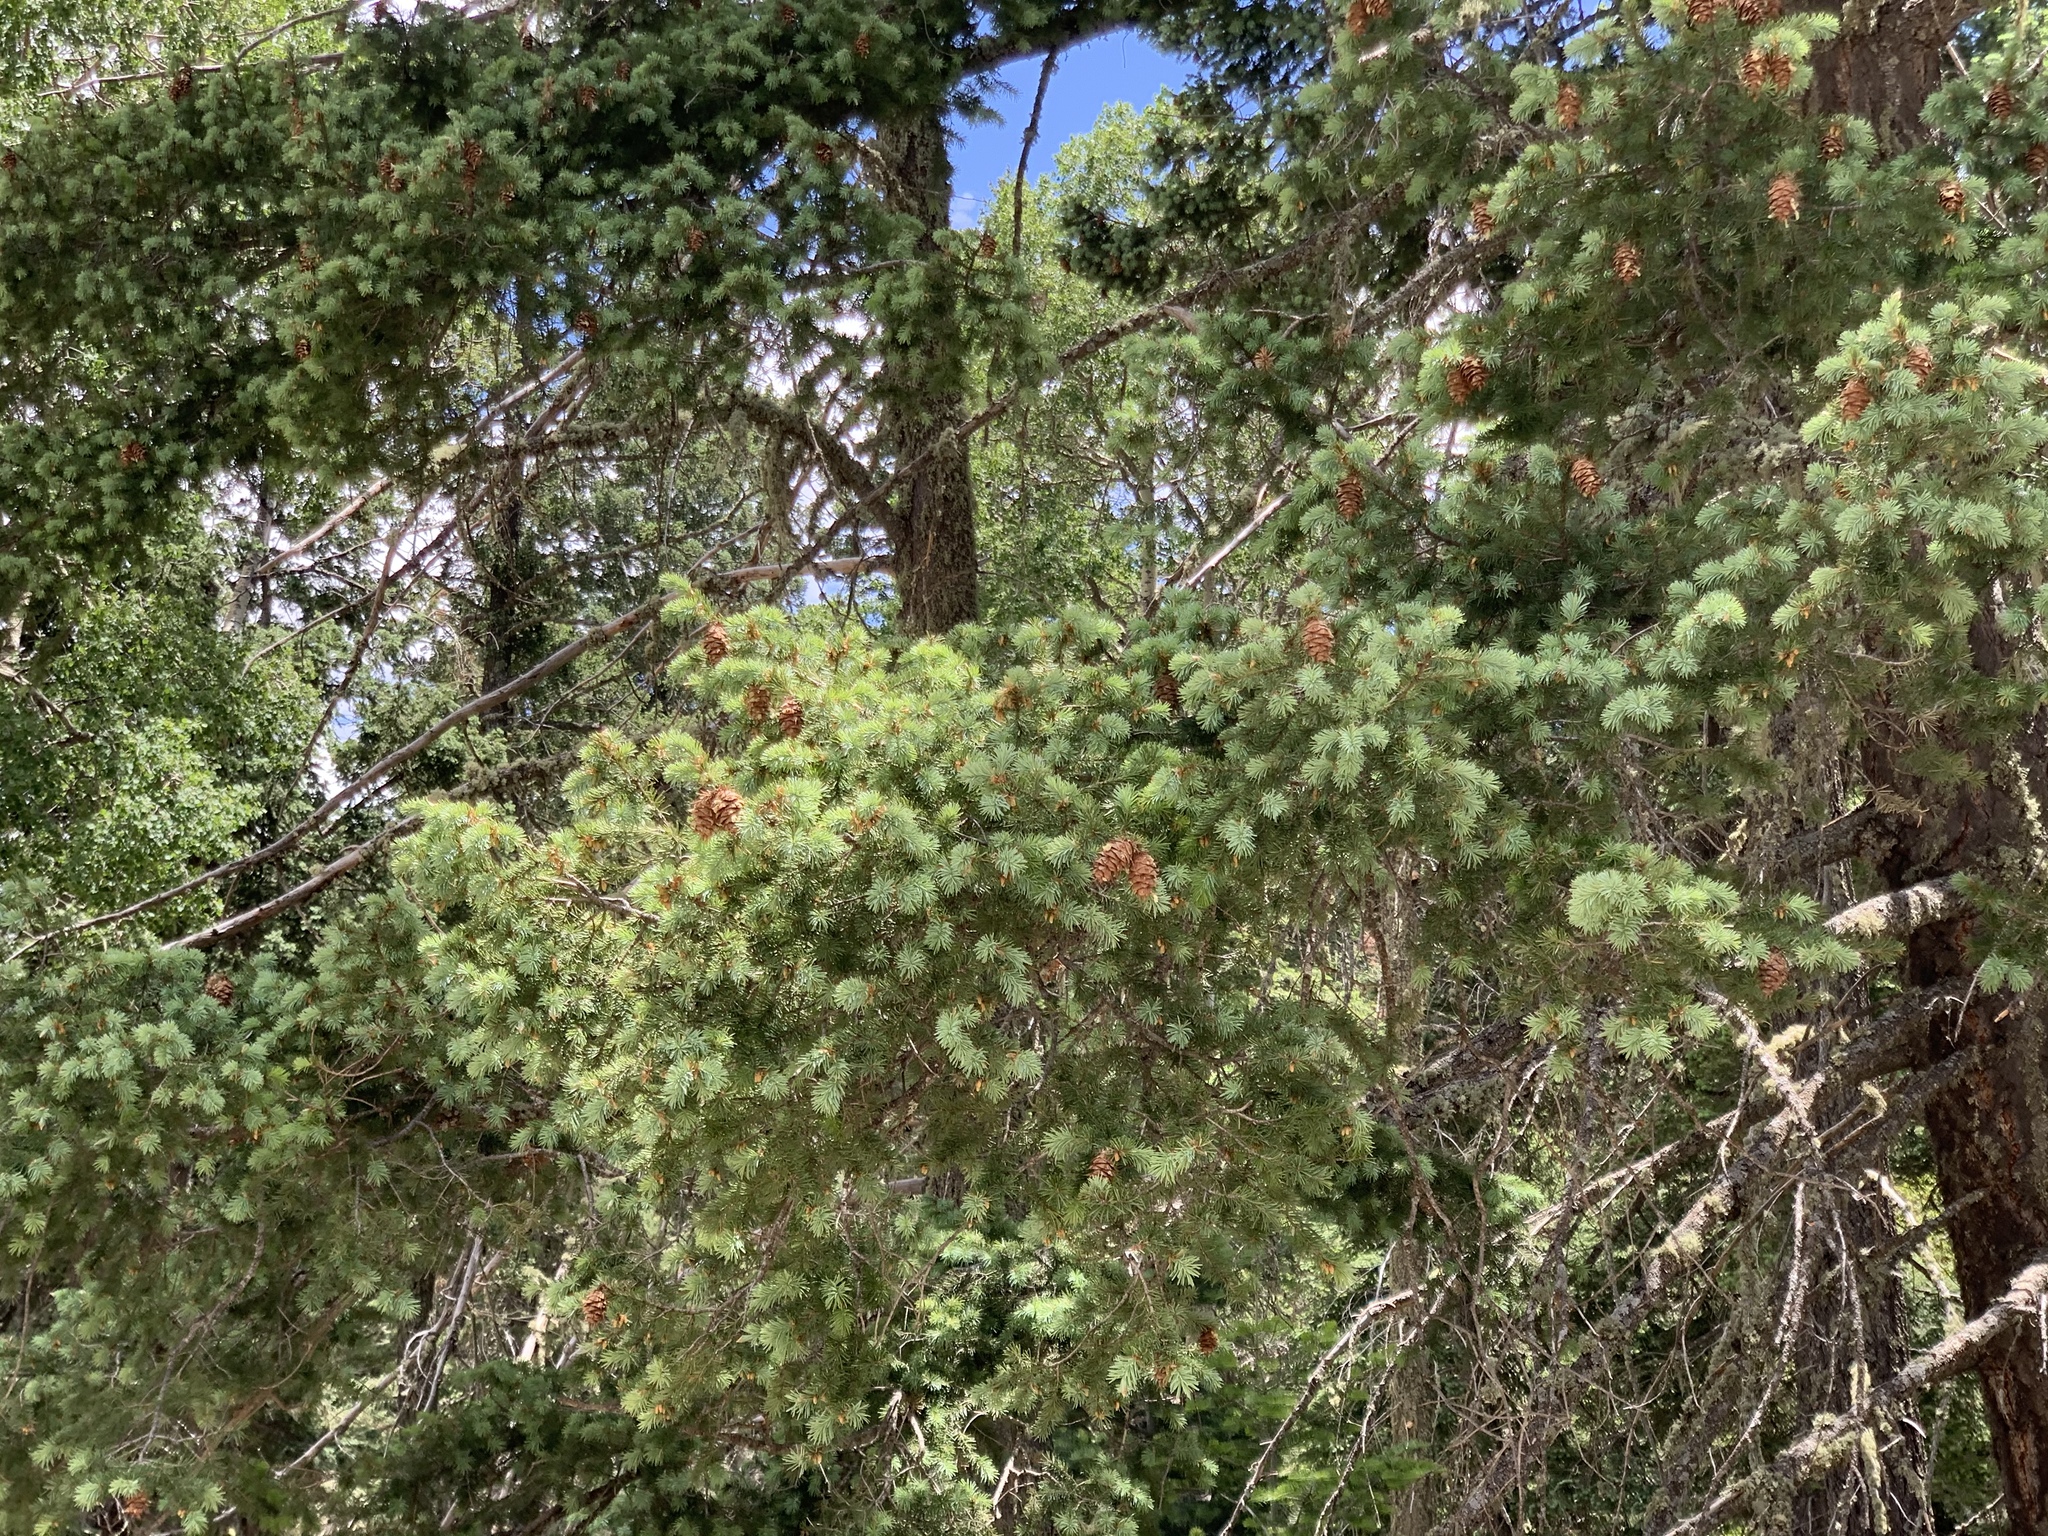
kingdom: Plantae
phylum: Tracheophyta
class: Pinopsida
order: Pinales
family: Pinaceae
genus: Pseudotsuga
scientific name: Pseudotsuga menziesii
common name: Douglas fir
